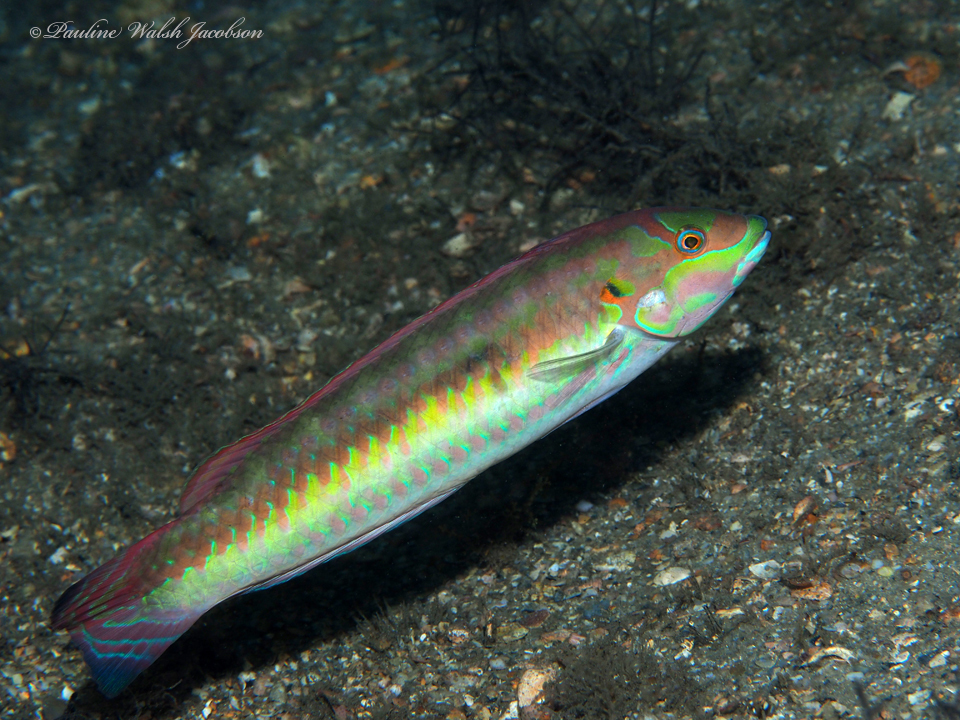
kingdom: Animalia
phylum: Chordata
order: Perciformes
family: Labridae
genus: Halichoeres
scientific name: Halichoeres bivittatus
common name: Slippery dick
